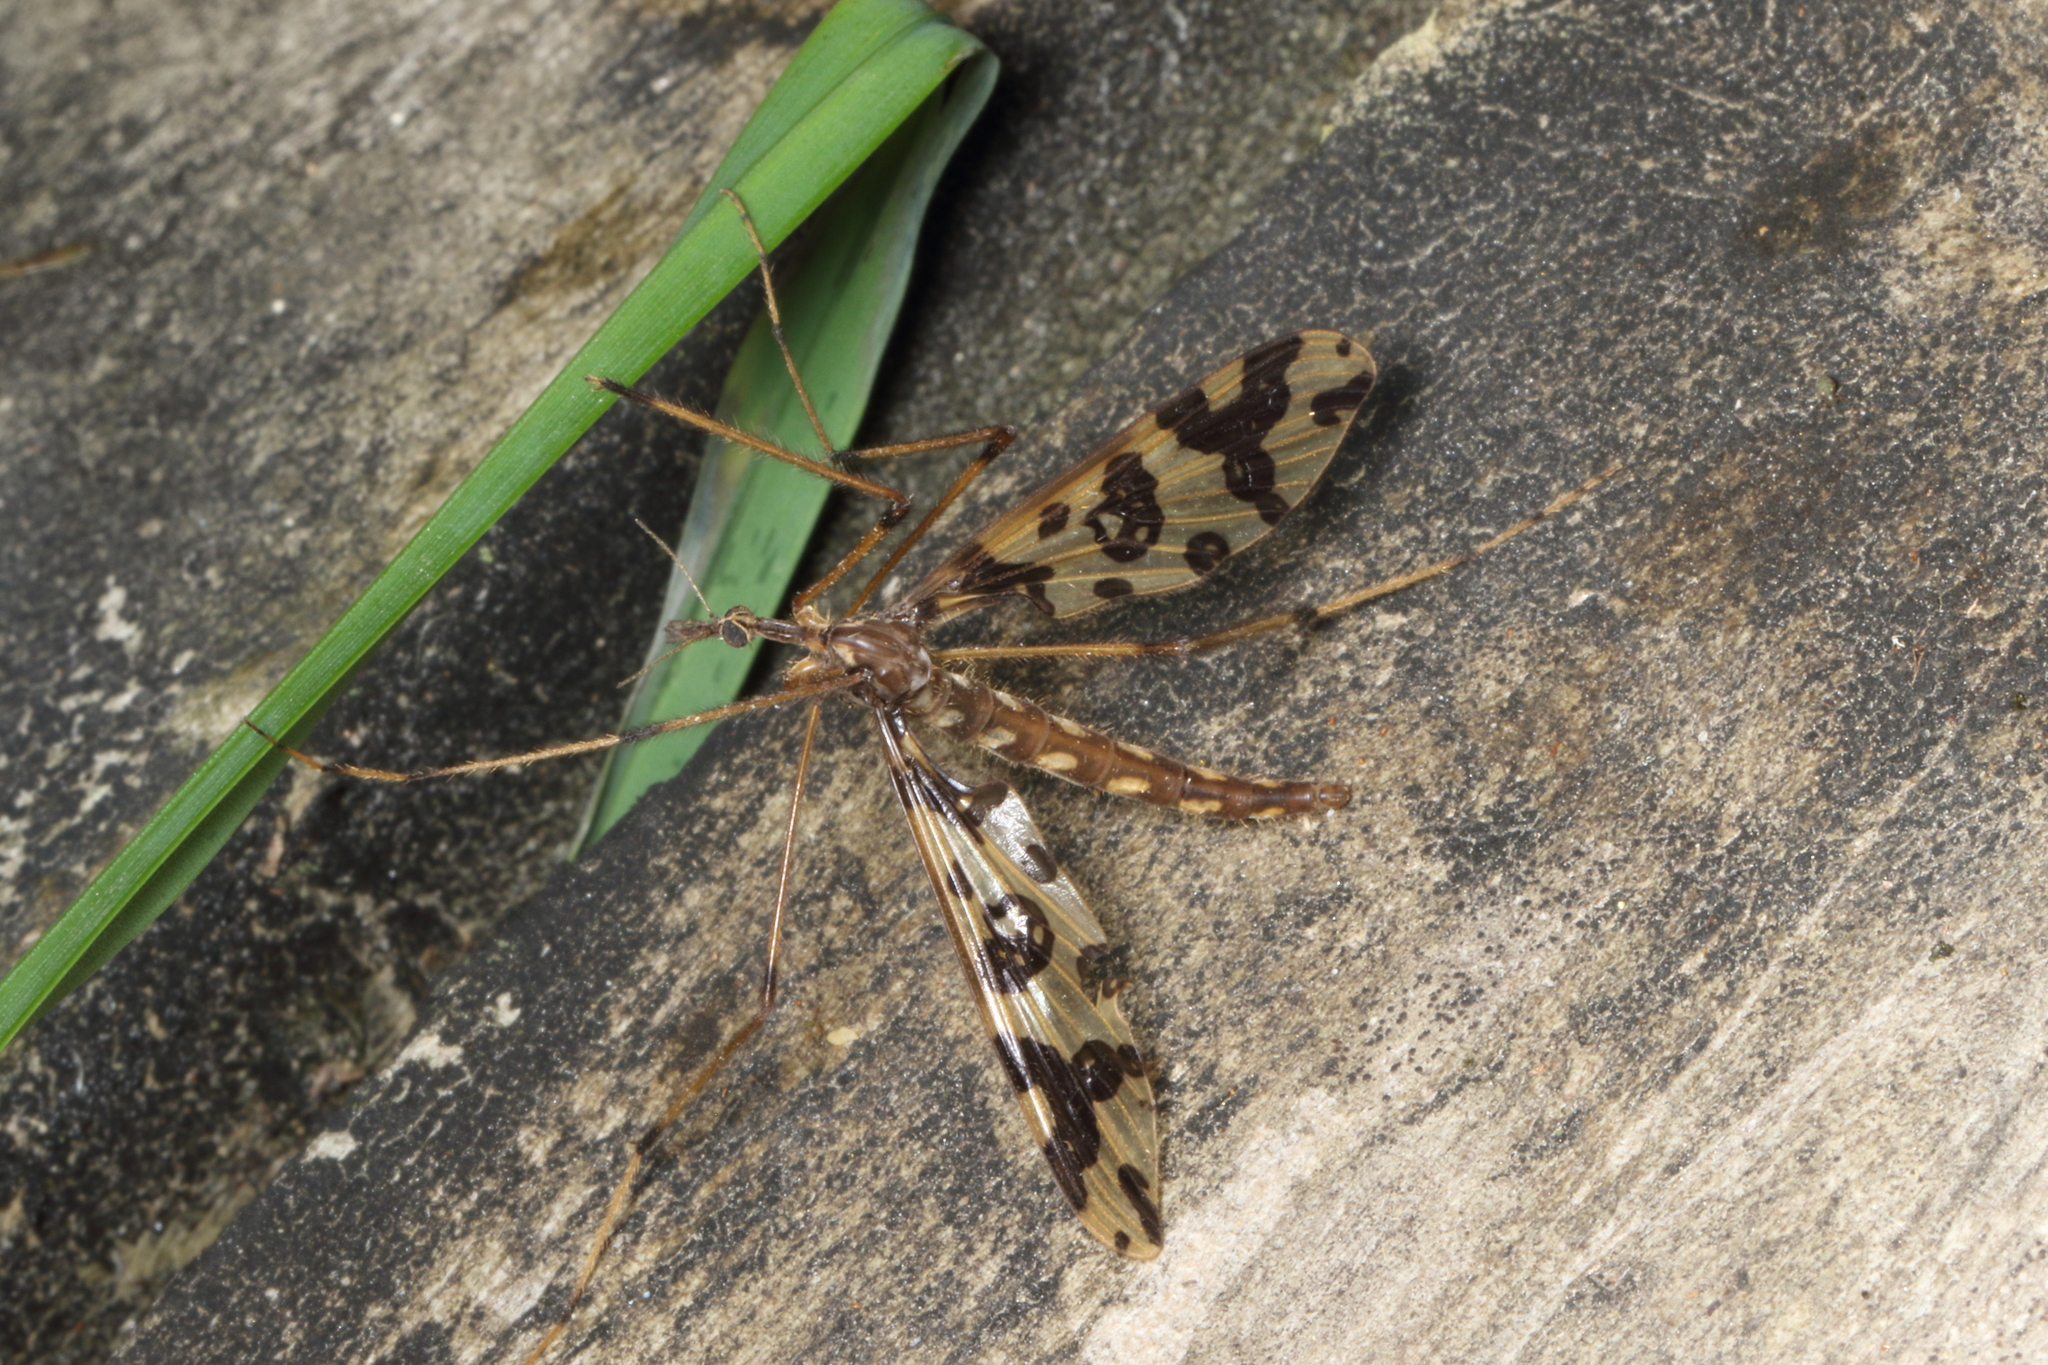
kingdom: Animalia
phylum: Arthropoda
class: Insecta
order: Diptera
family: Tanyderidae
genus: Tanyderus
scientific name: Tanyderus annuliferus
